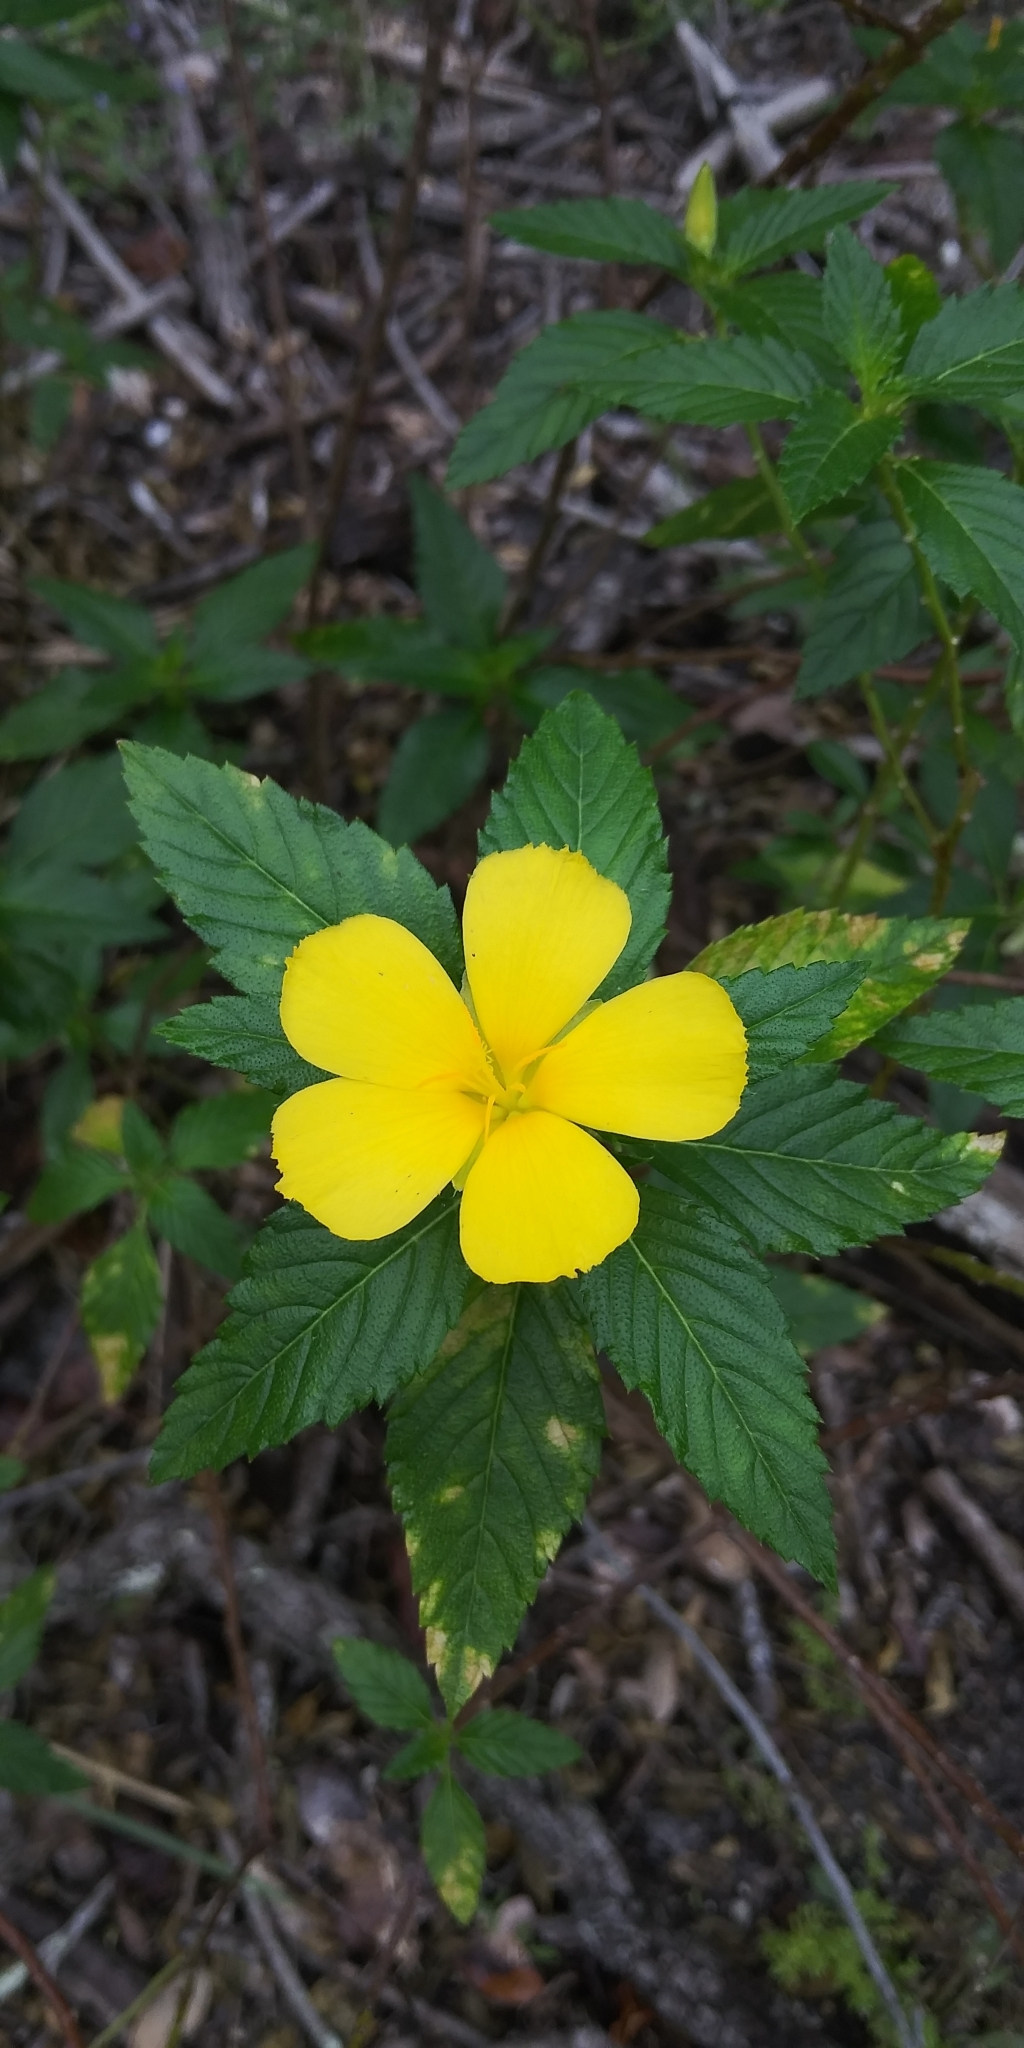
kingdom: Plantae
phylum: Tracheophyta
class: Magnoliopsida
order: Malpighiales
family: Turneraceae
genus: Turnera
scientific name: Turnera ulmifolia
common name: Ramgoat dashalong
